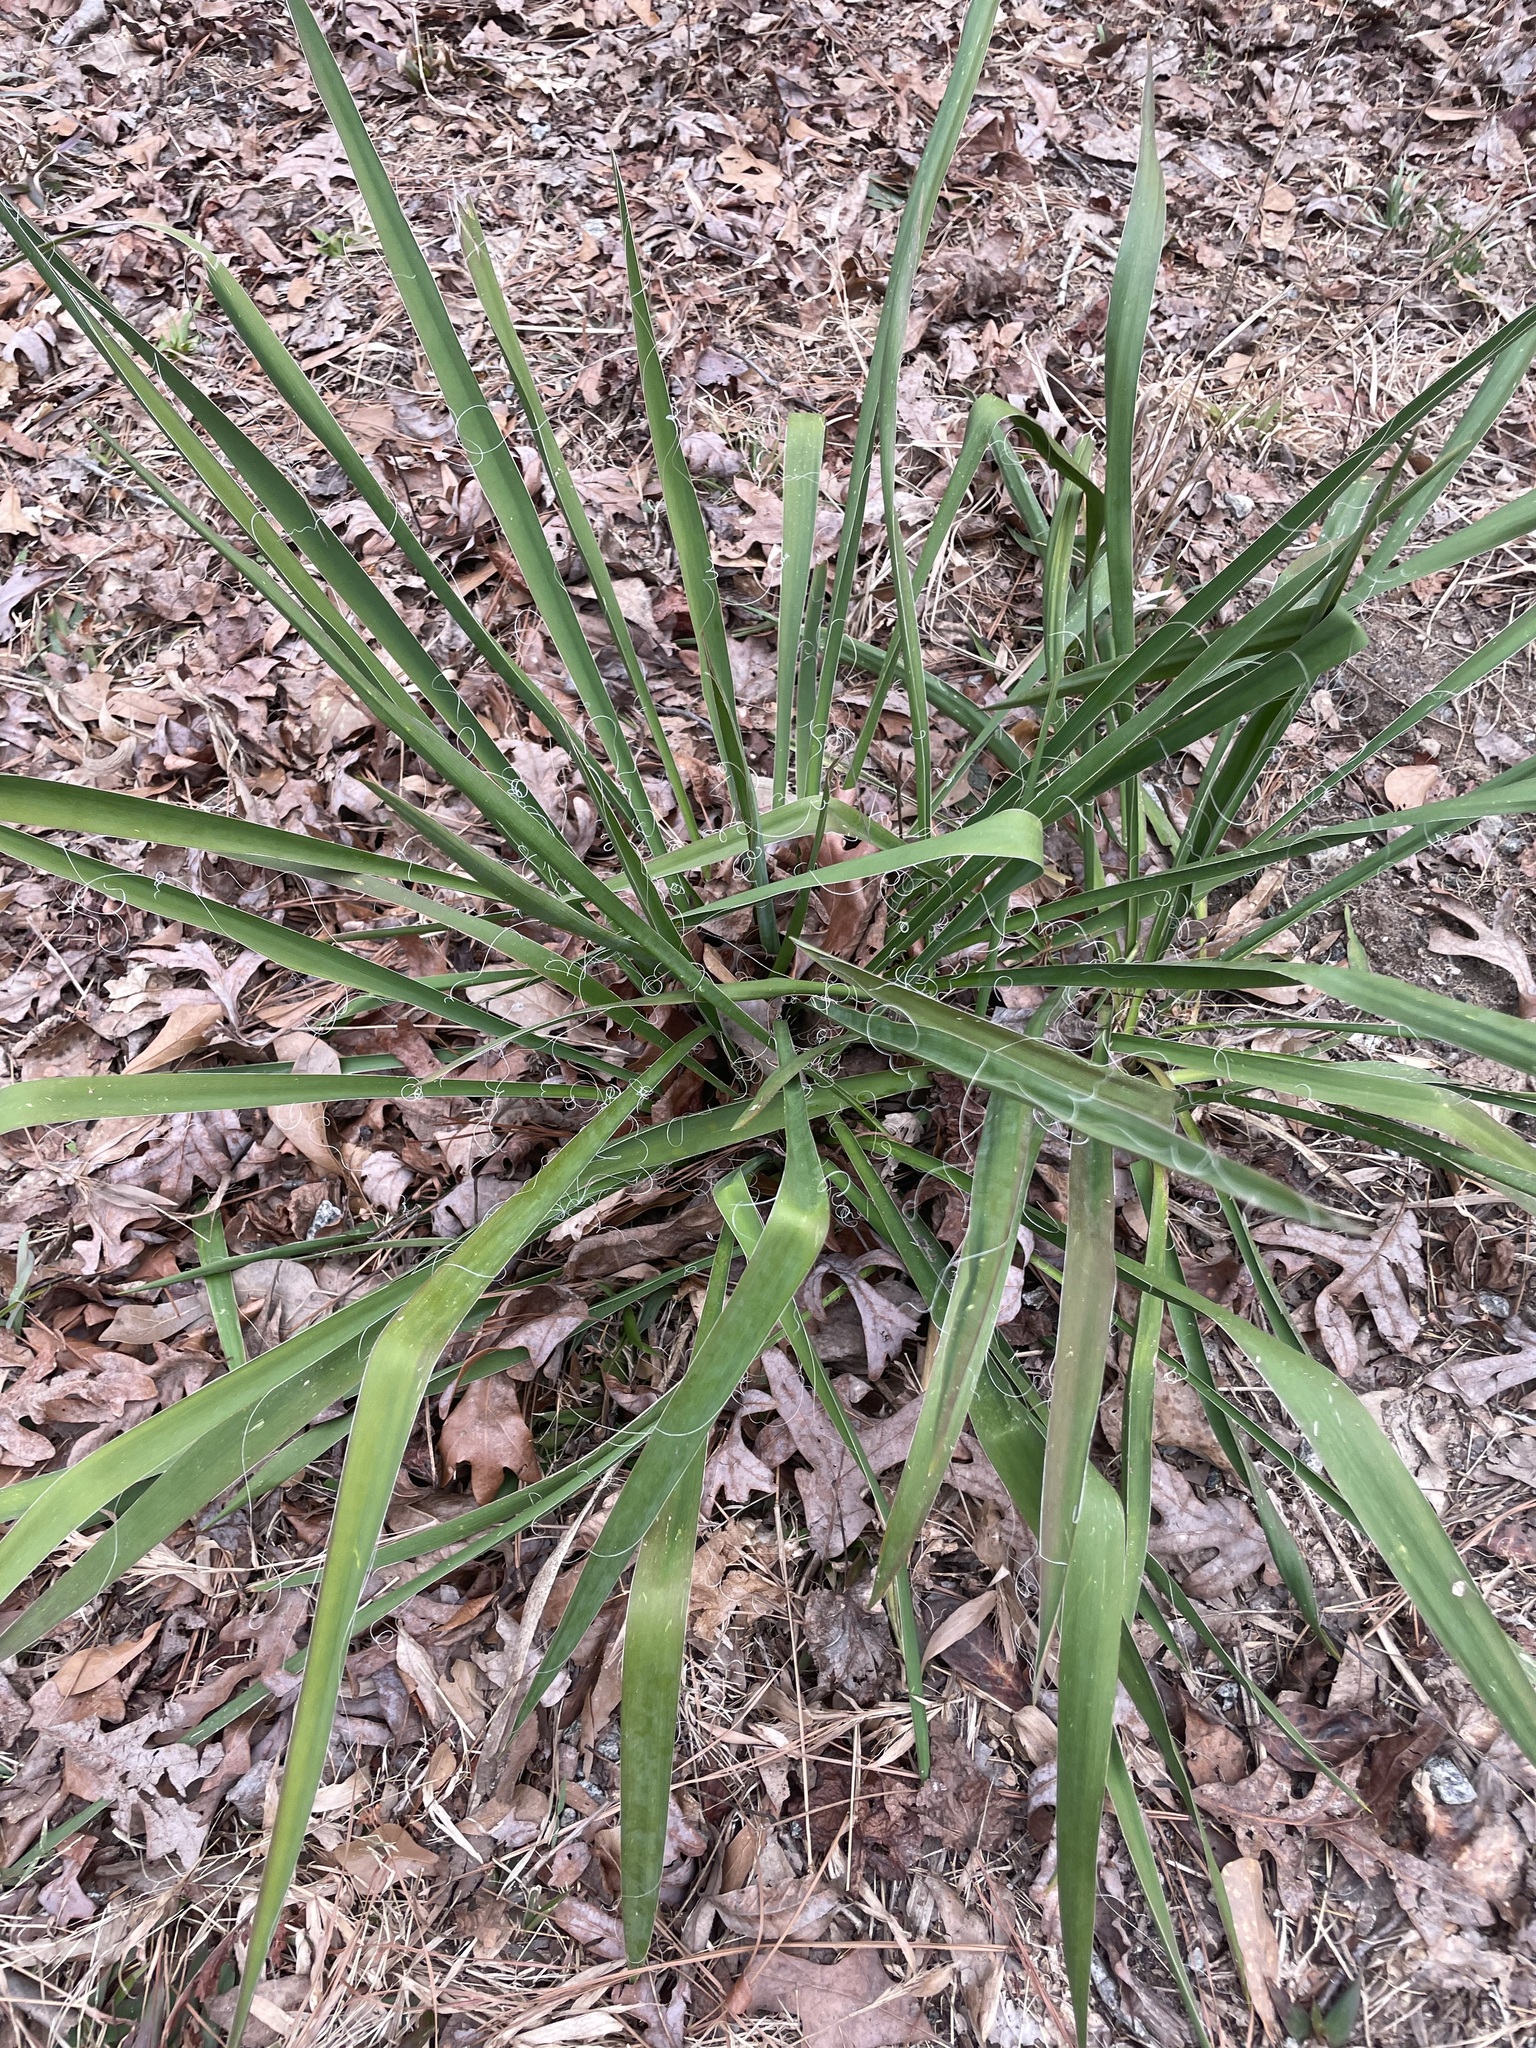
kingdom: Plantae
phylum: Tracheophyta
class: Liliopsida
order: Asparagales
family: Asparagaceae
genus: Yucca
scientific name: Yucca filamentosa
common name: Adam's-needle
